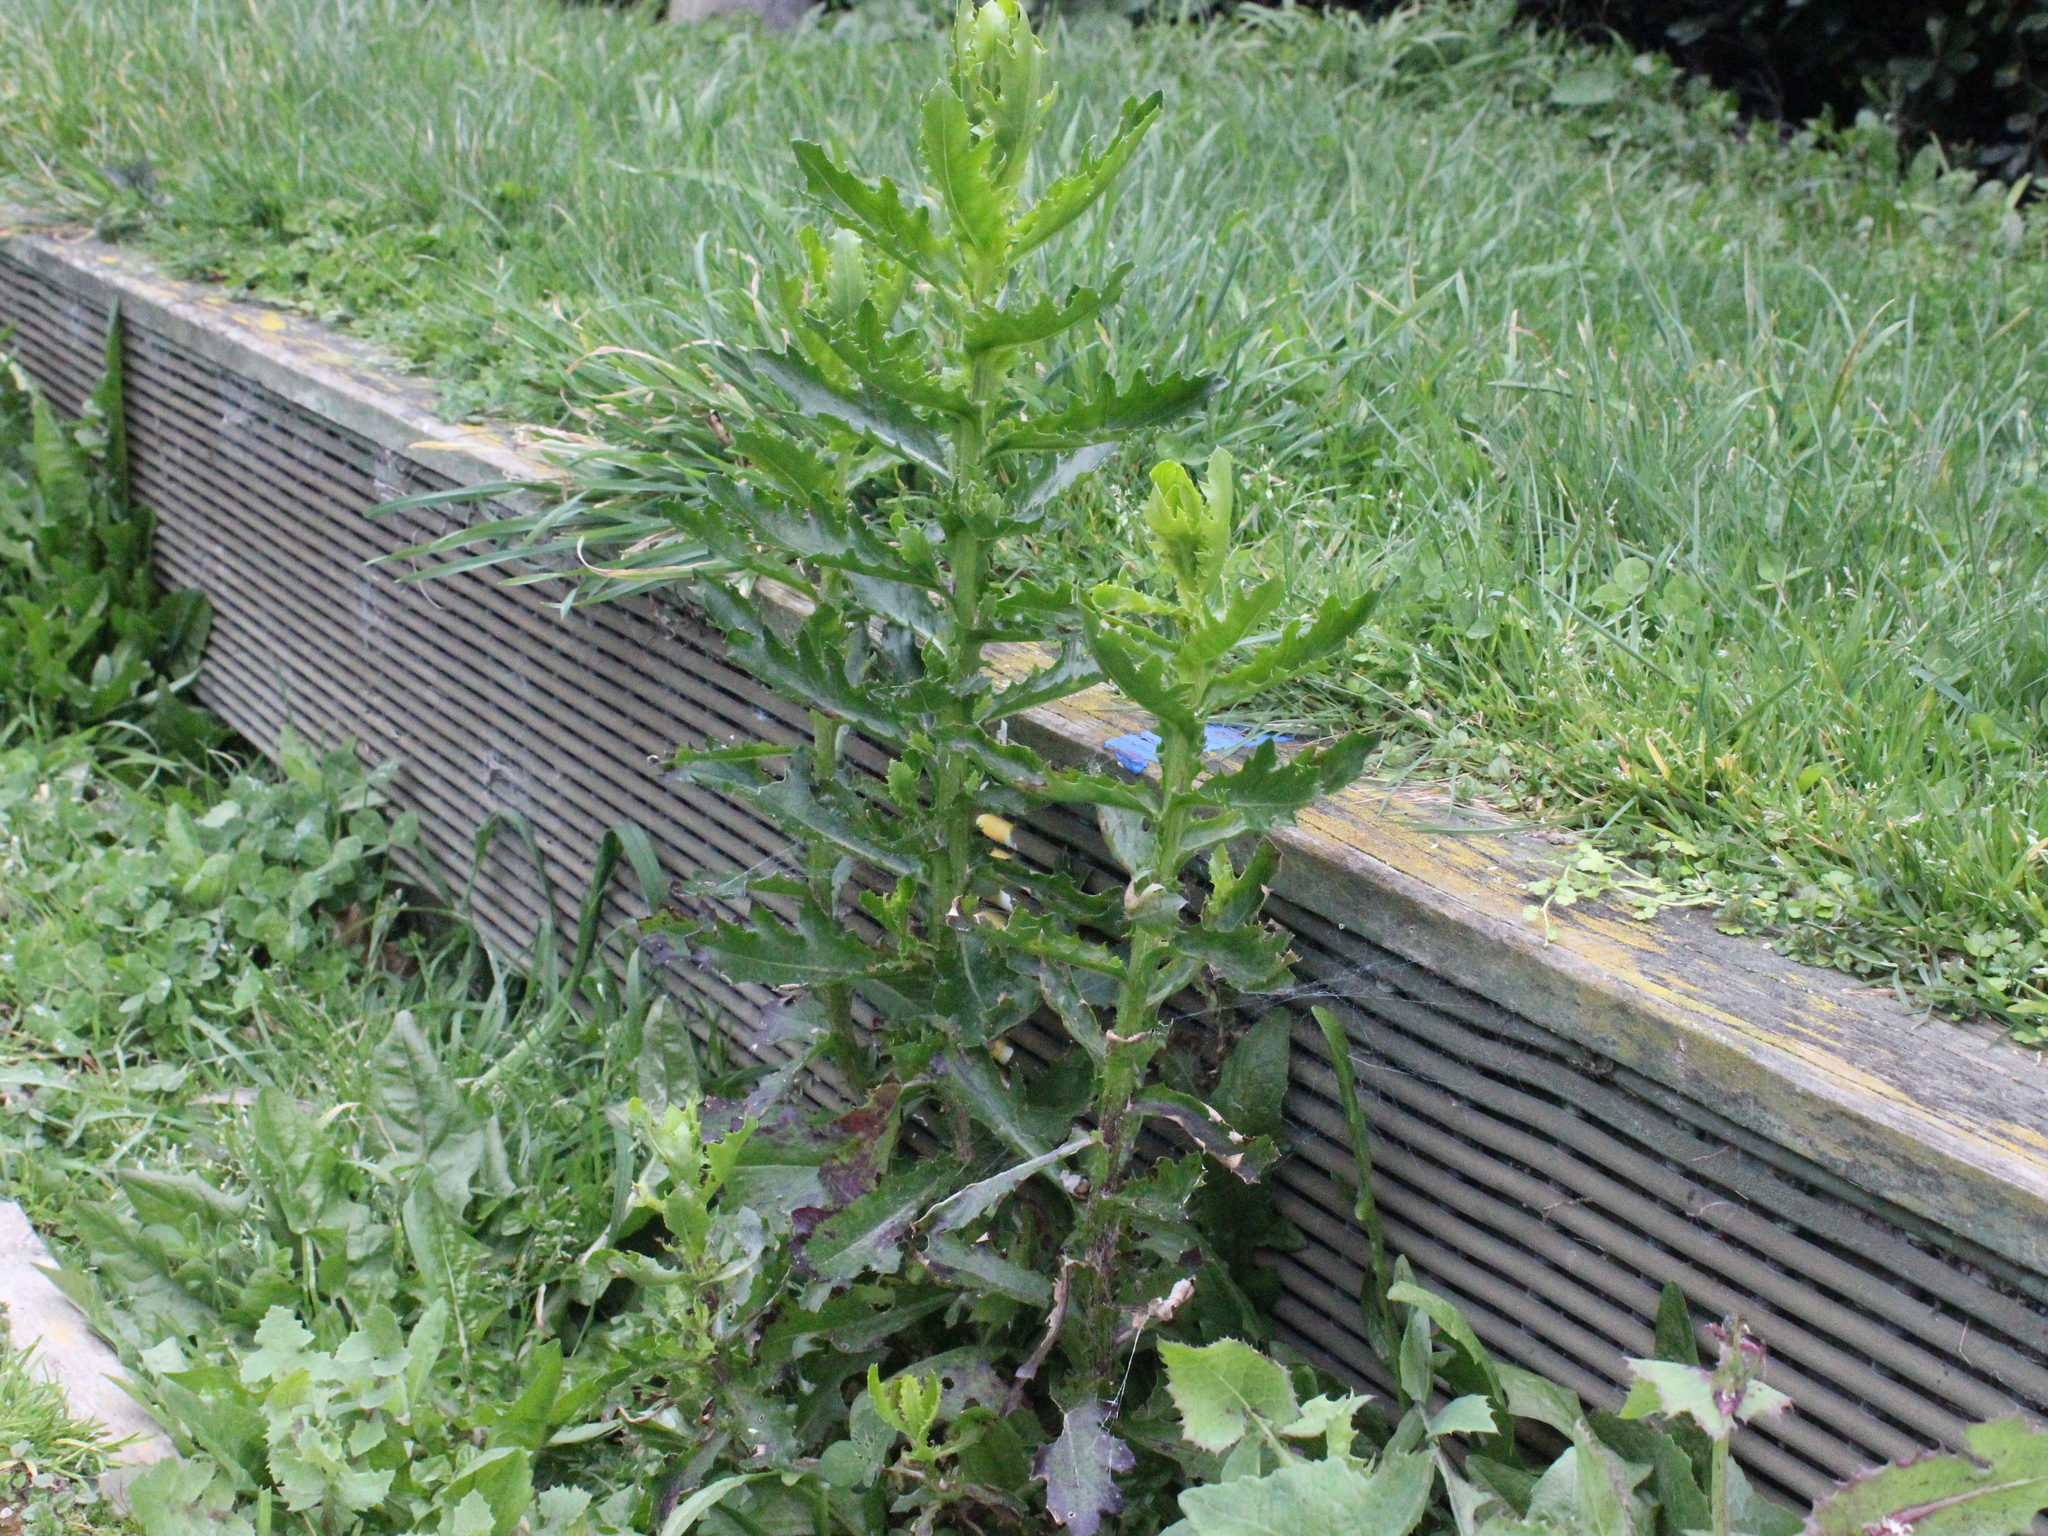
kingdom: Plantae
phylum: Tracheophyta
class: Magnoliopsida
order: Asterales
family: Asteraceae
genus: Senecio
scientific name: Senecio glastifolius
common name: Woad-leaved ragwort
